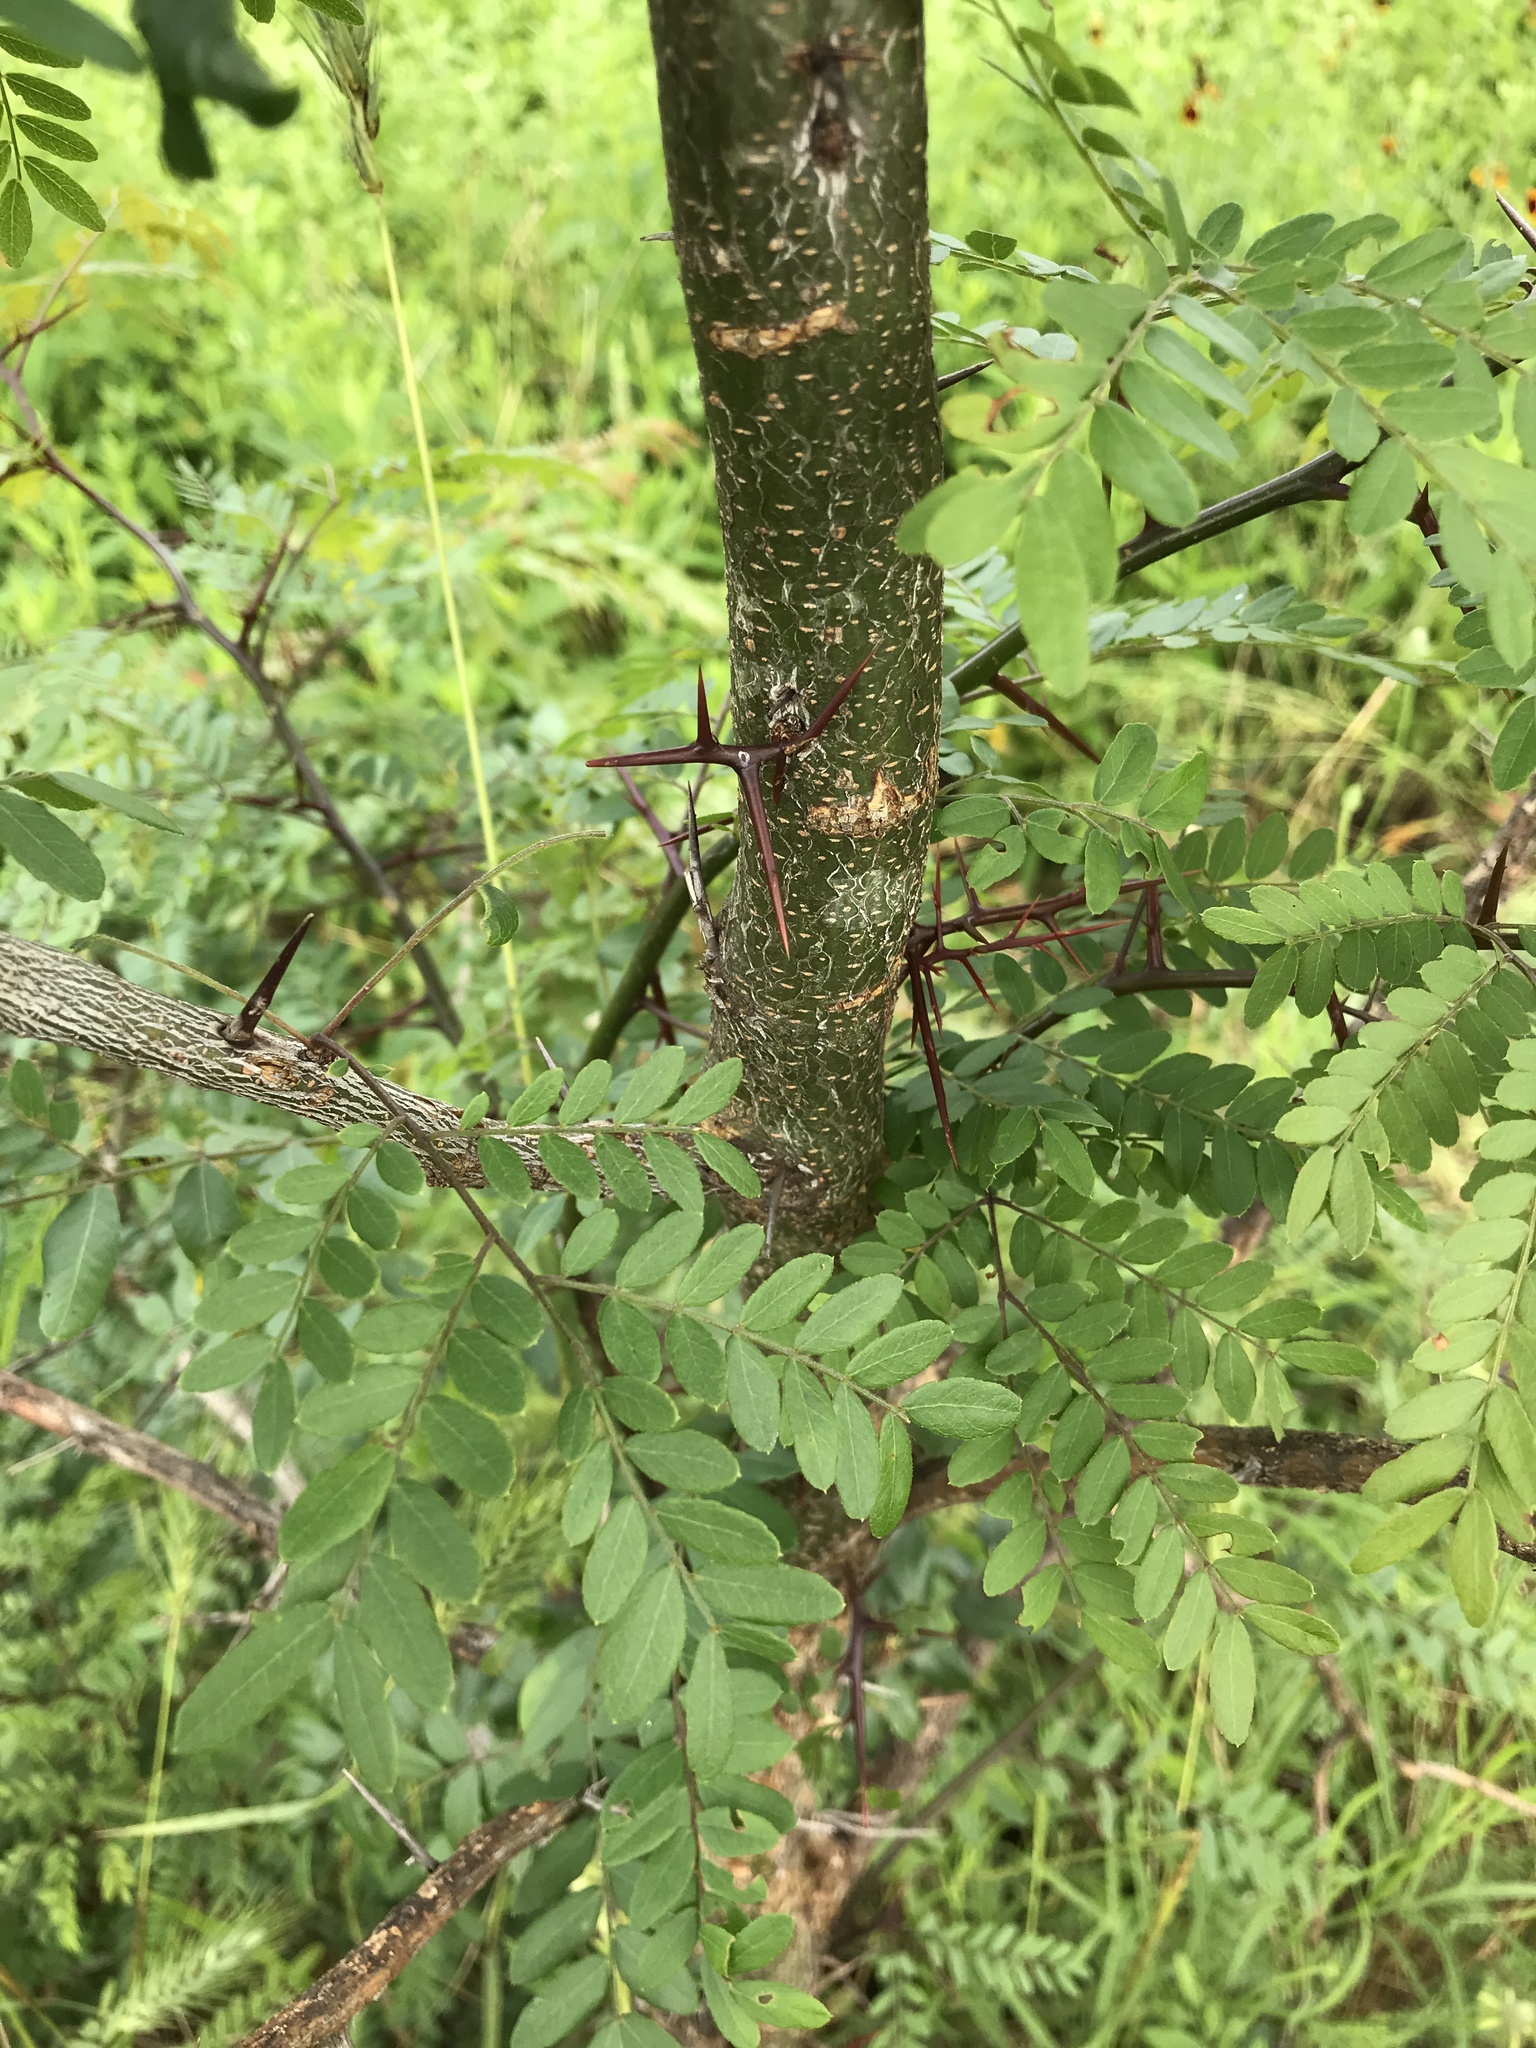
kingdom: Plantae
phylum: Tracheophyta
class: Magnoliopsida
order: Fabales
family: Fabaceae
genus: Gleditsia
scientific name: Gleditsia triacanthos
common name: Common honeylocust
